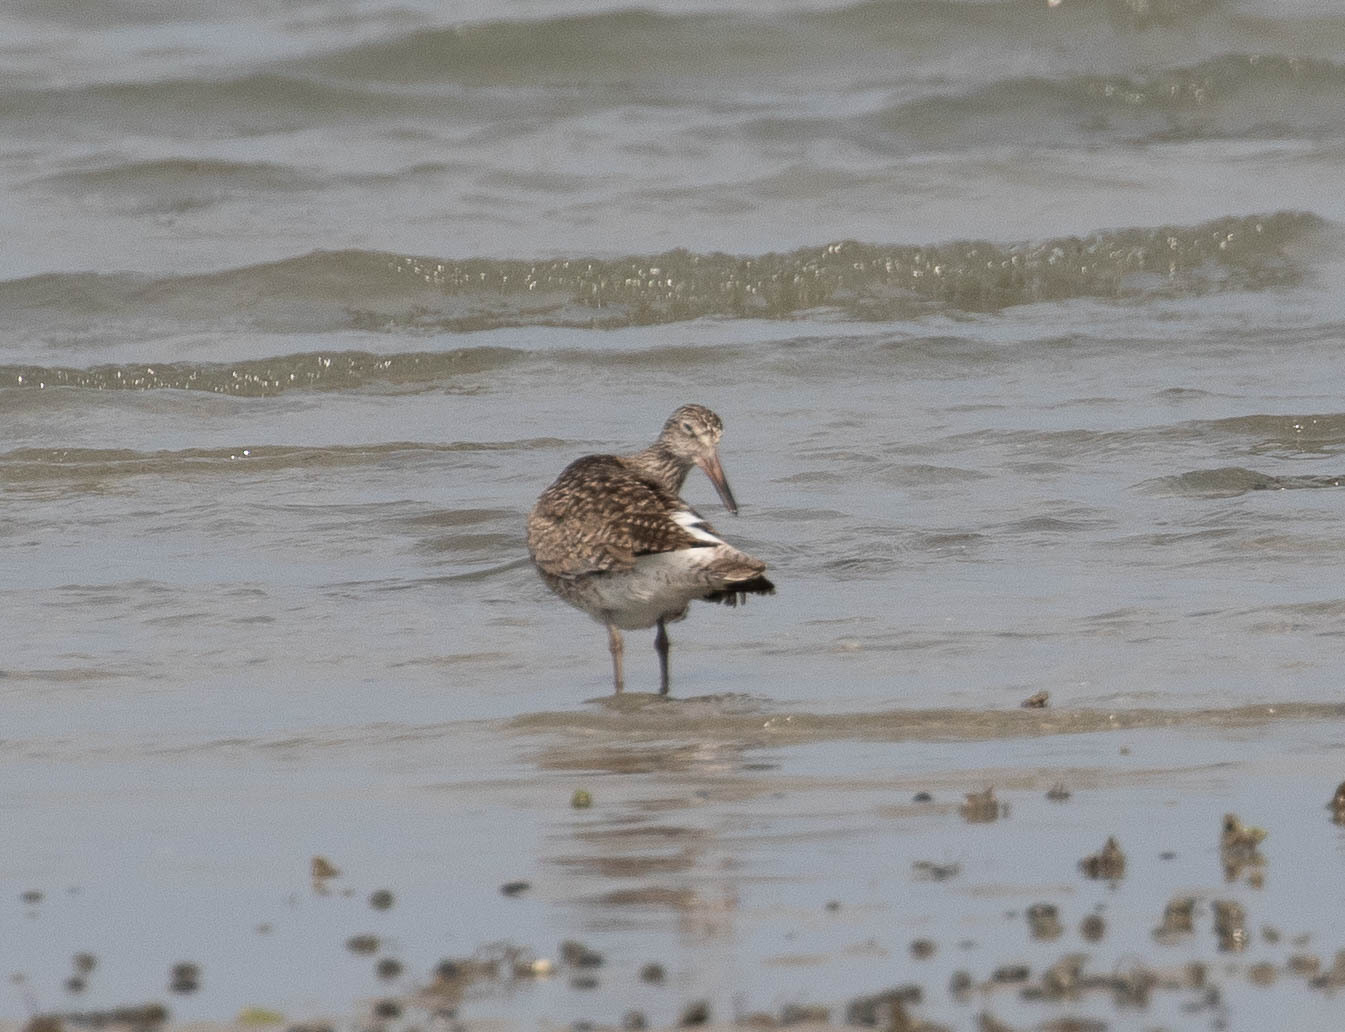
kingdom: Animalia
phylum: Chordata
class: Aves
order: Charadriiformes
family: Scolopacidae
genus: Tringa
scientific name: Tringa semipalmata
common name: Willet
